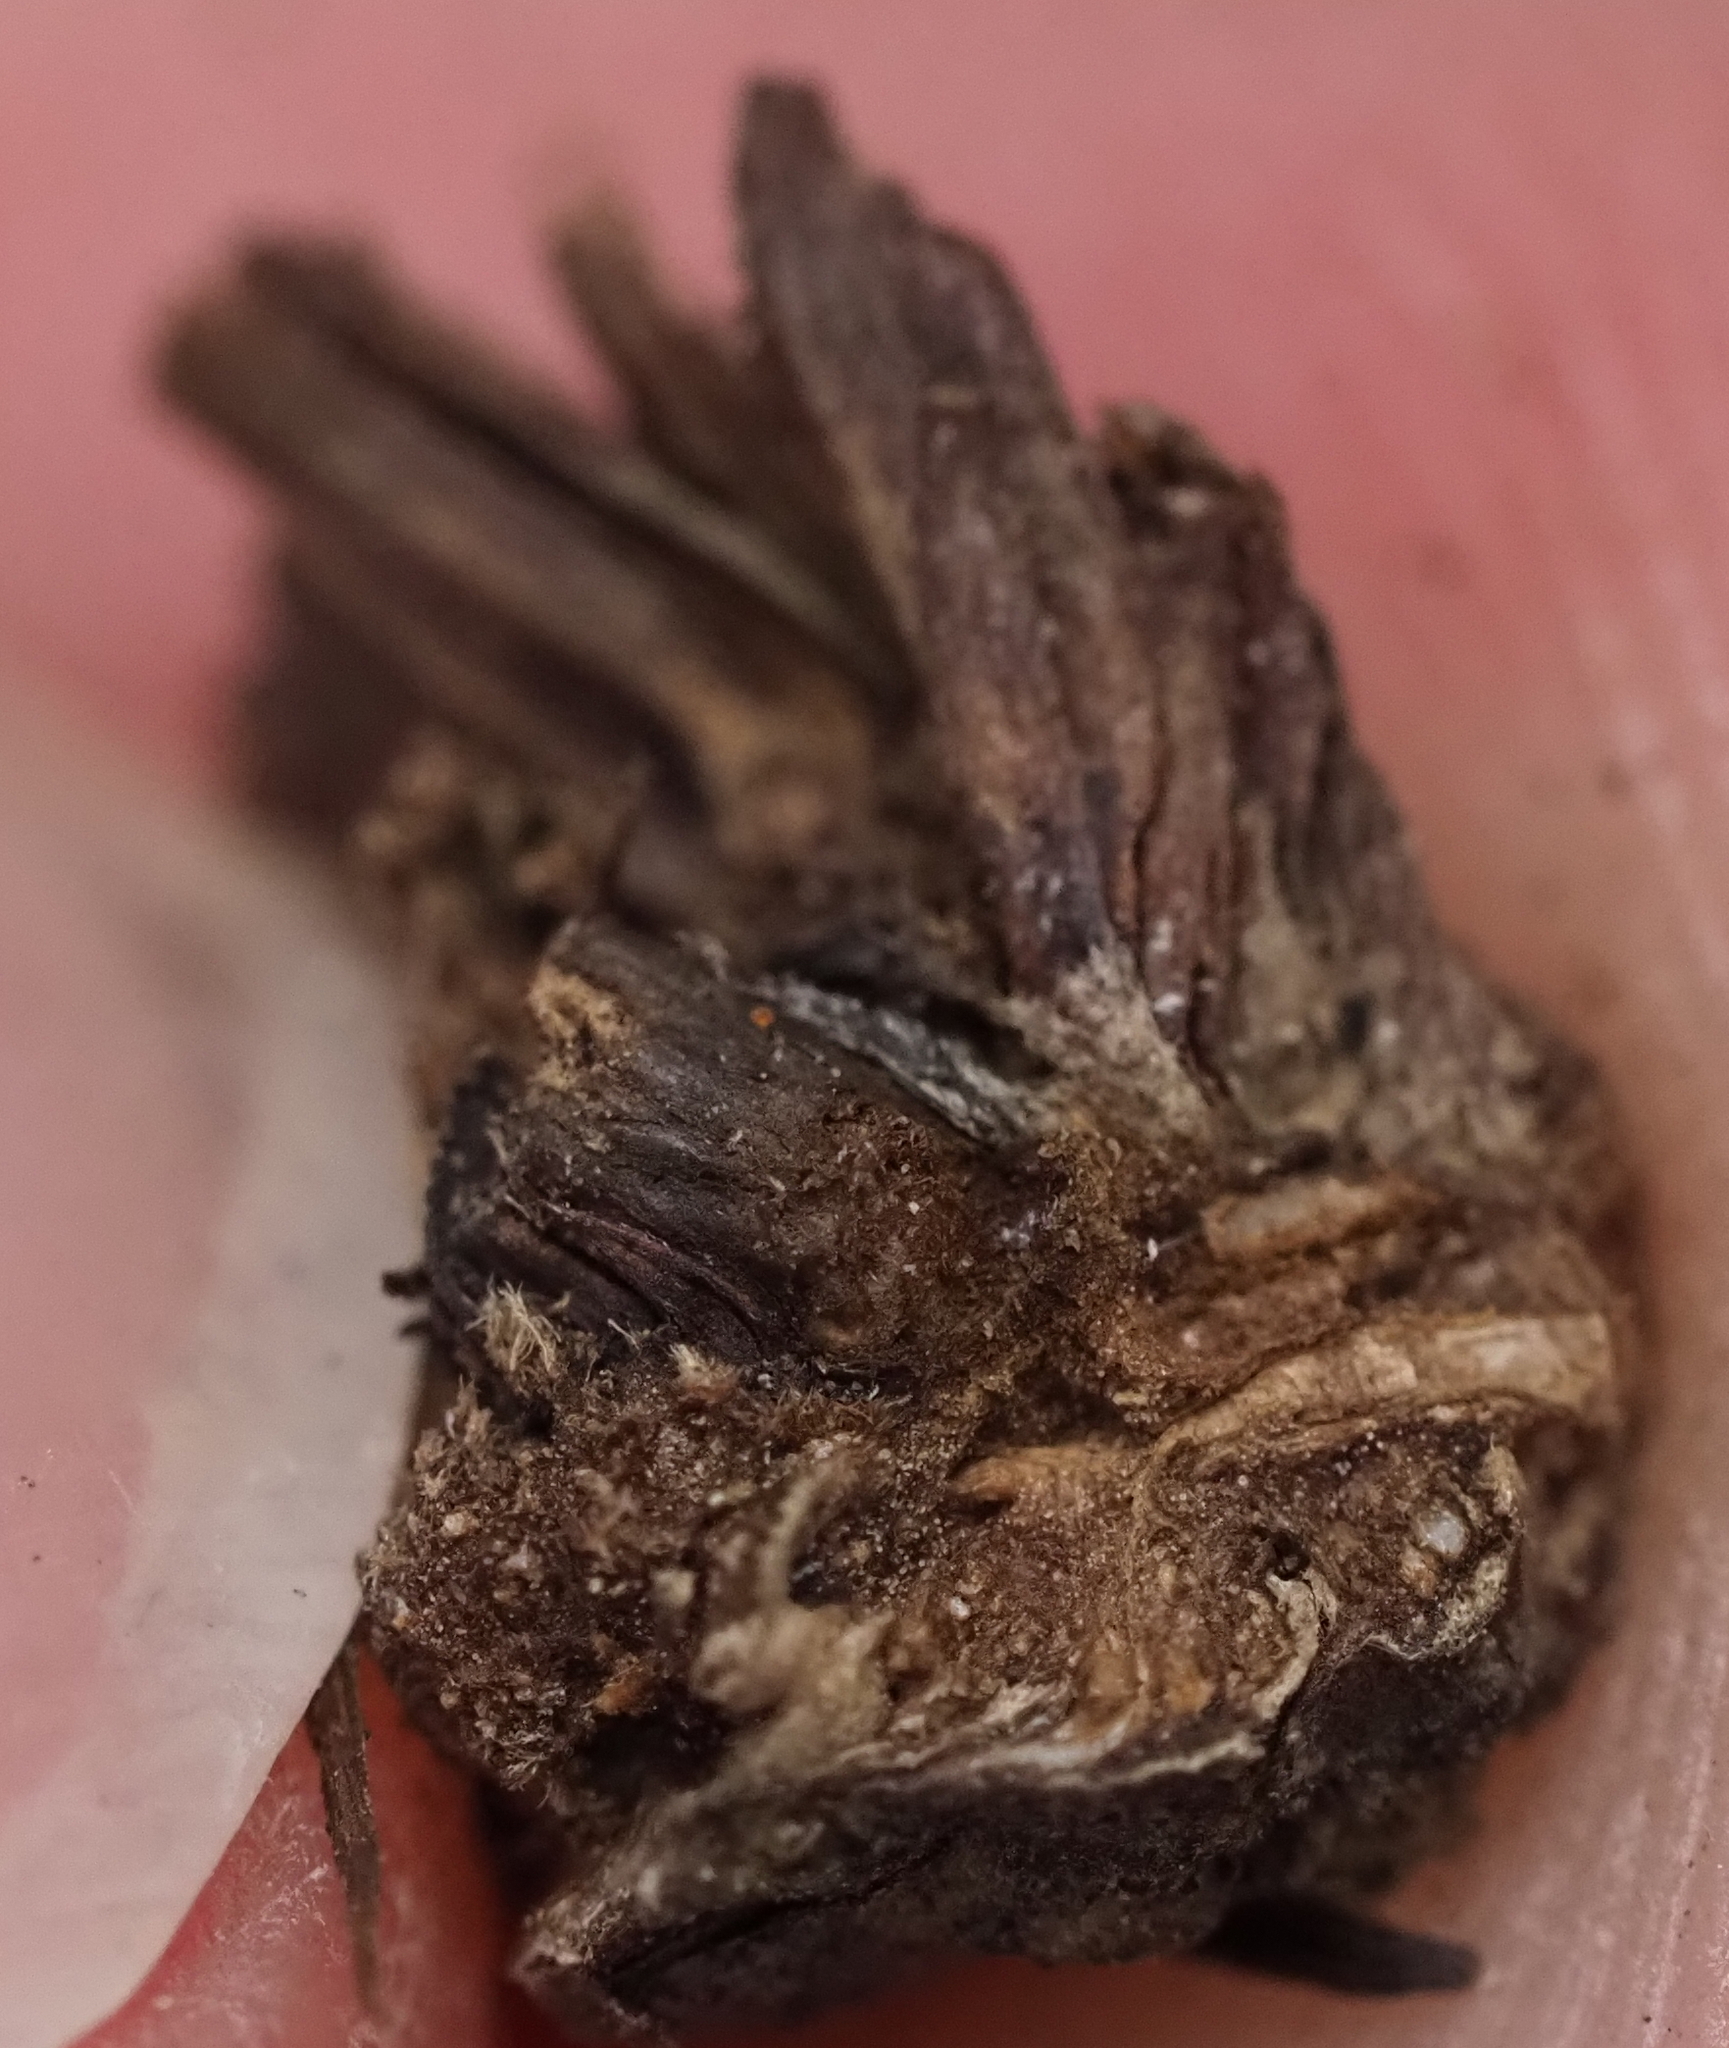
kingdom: Animalia
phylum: Arthropoda
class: Insecta
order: Hymenoptera
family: Cynipidae
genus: Andricus
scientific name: Andricus quercusfoliatus
